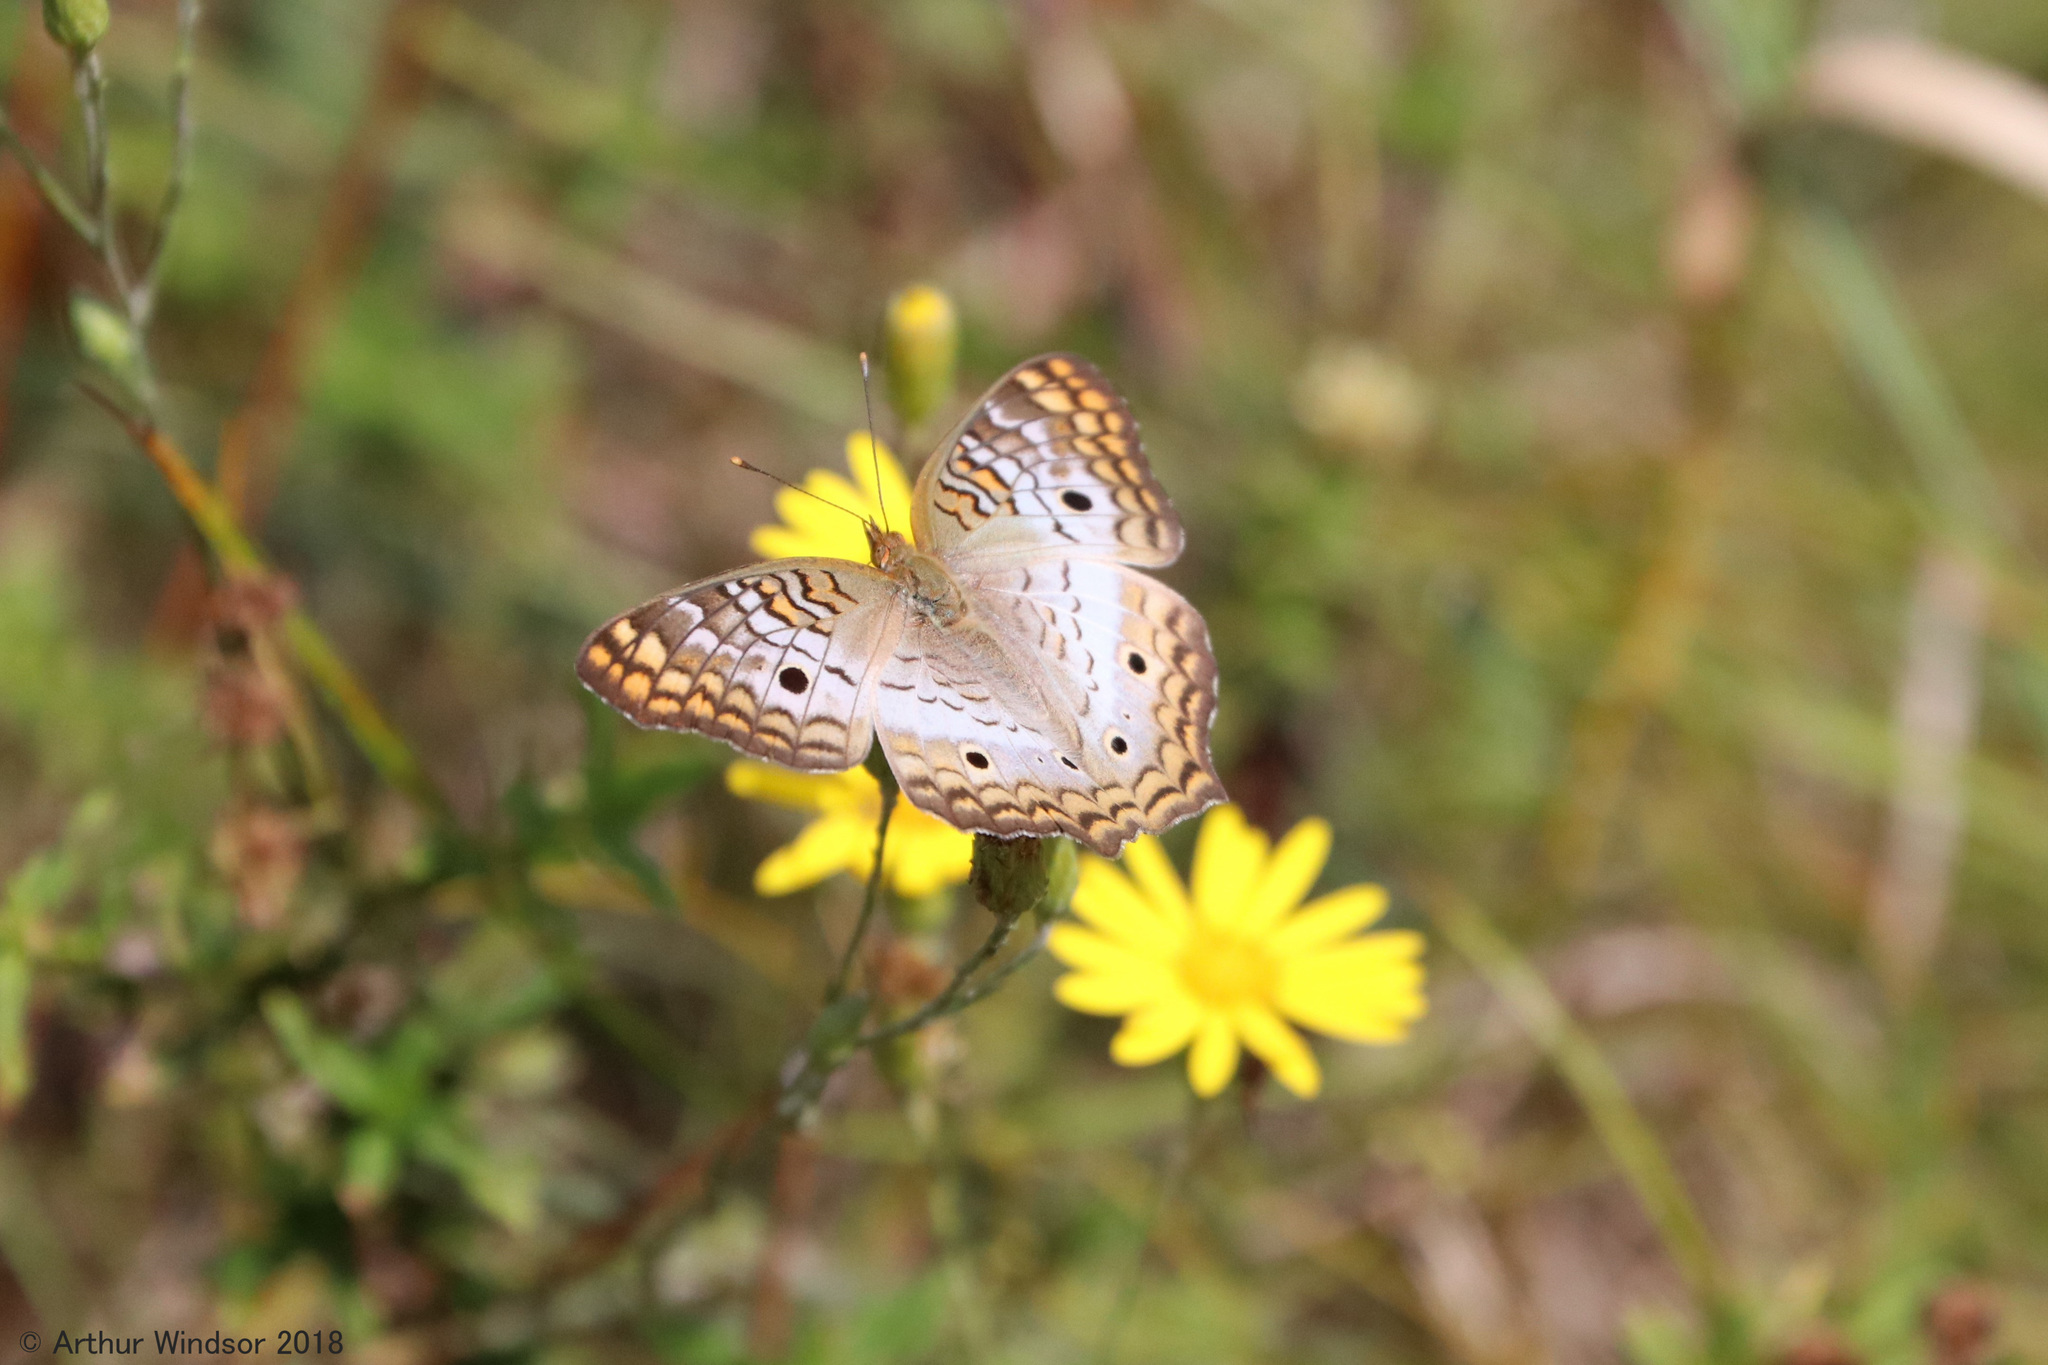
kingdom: Animalia
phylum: Arthropoda
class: Insecta
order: Lepidoptera
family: Nymphalidae
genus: Anartia
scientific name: Anartia jatrophae
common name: White peacock
